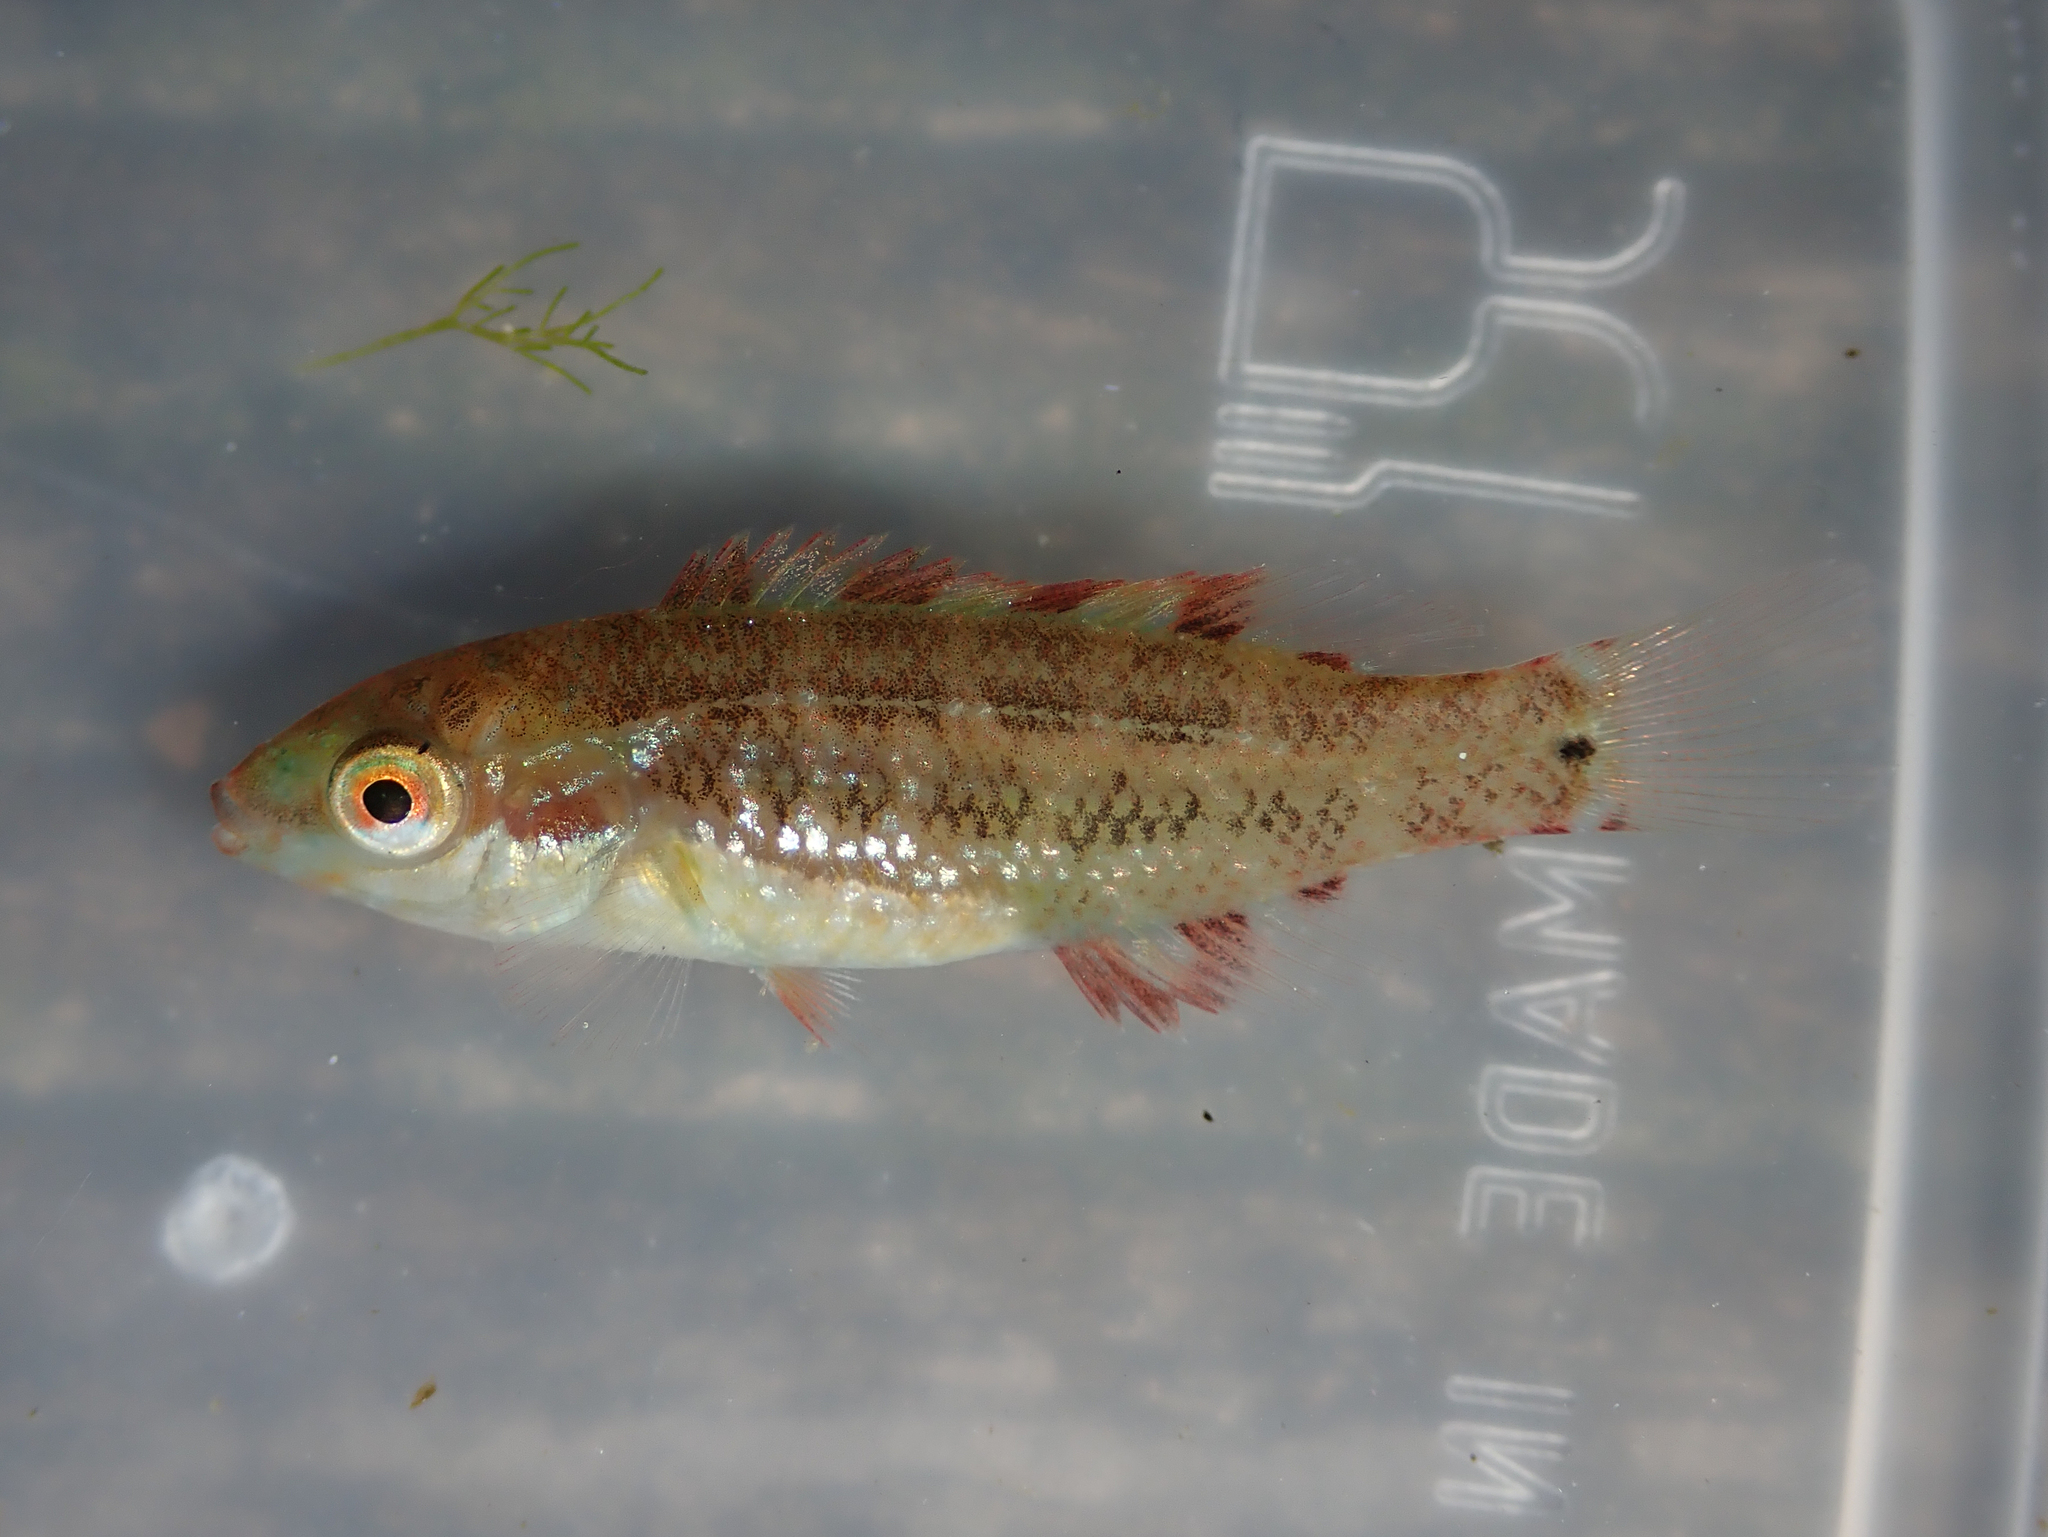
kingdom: Animalia
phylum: Chordata
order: Perciformes
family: Labridae
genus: Symphodus
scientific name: Symphodus melops
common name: Corkwing
